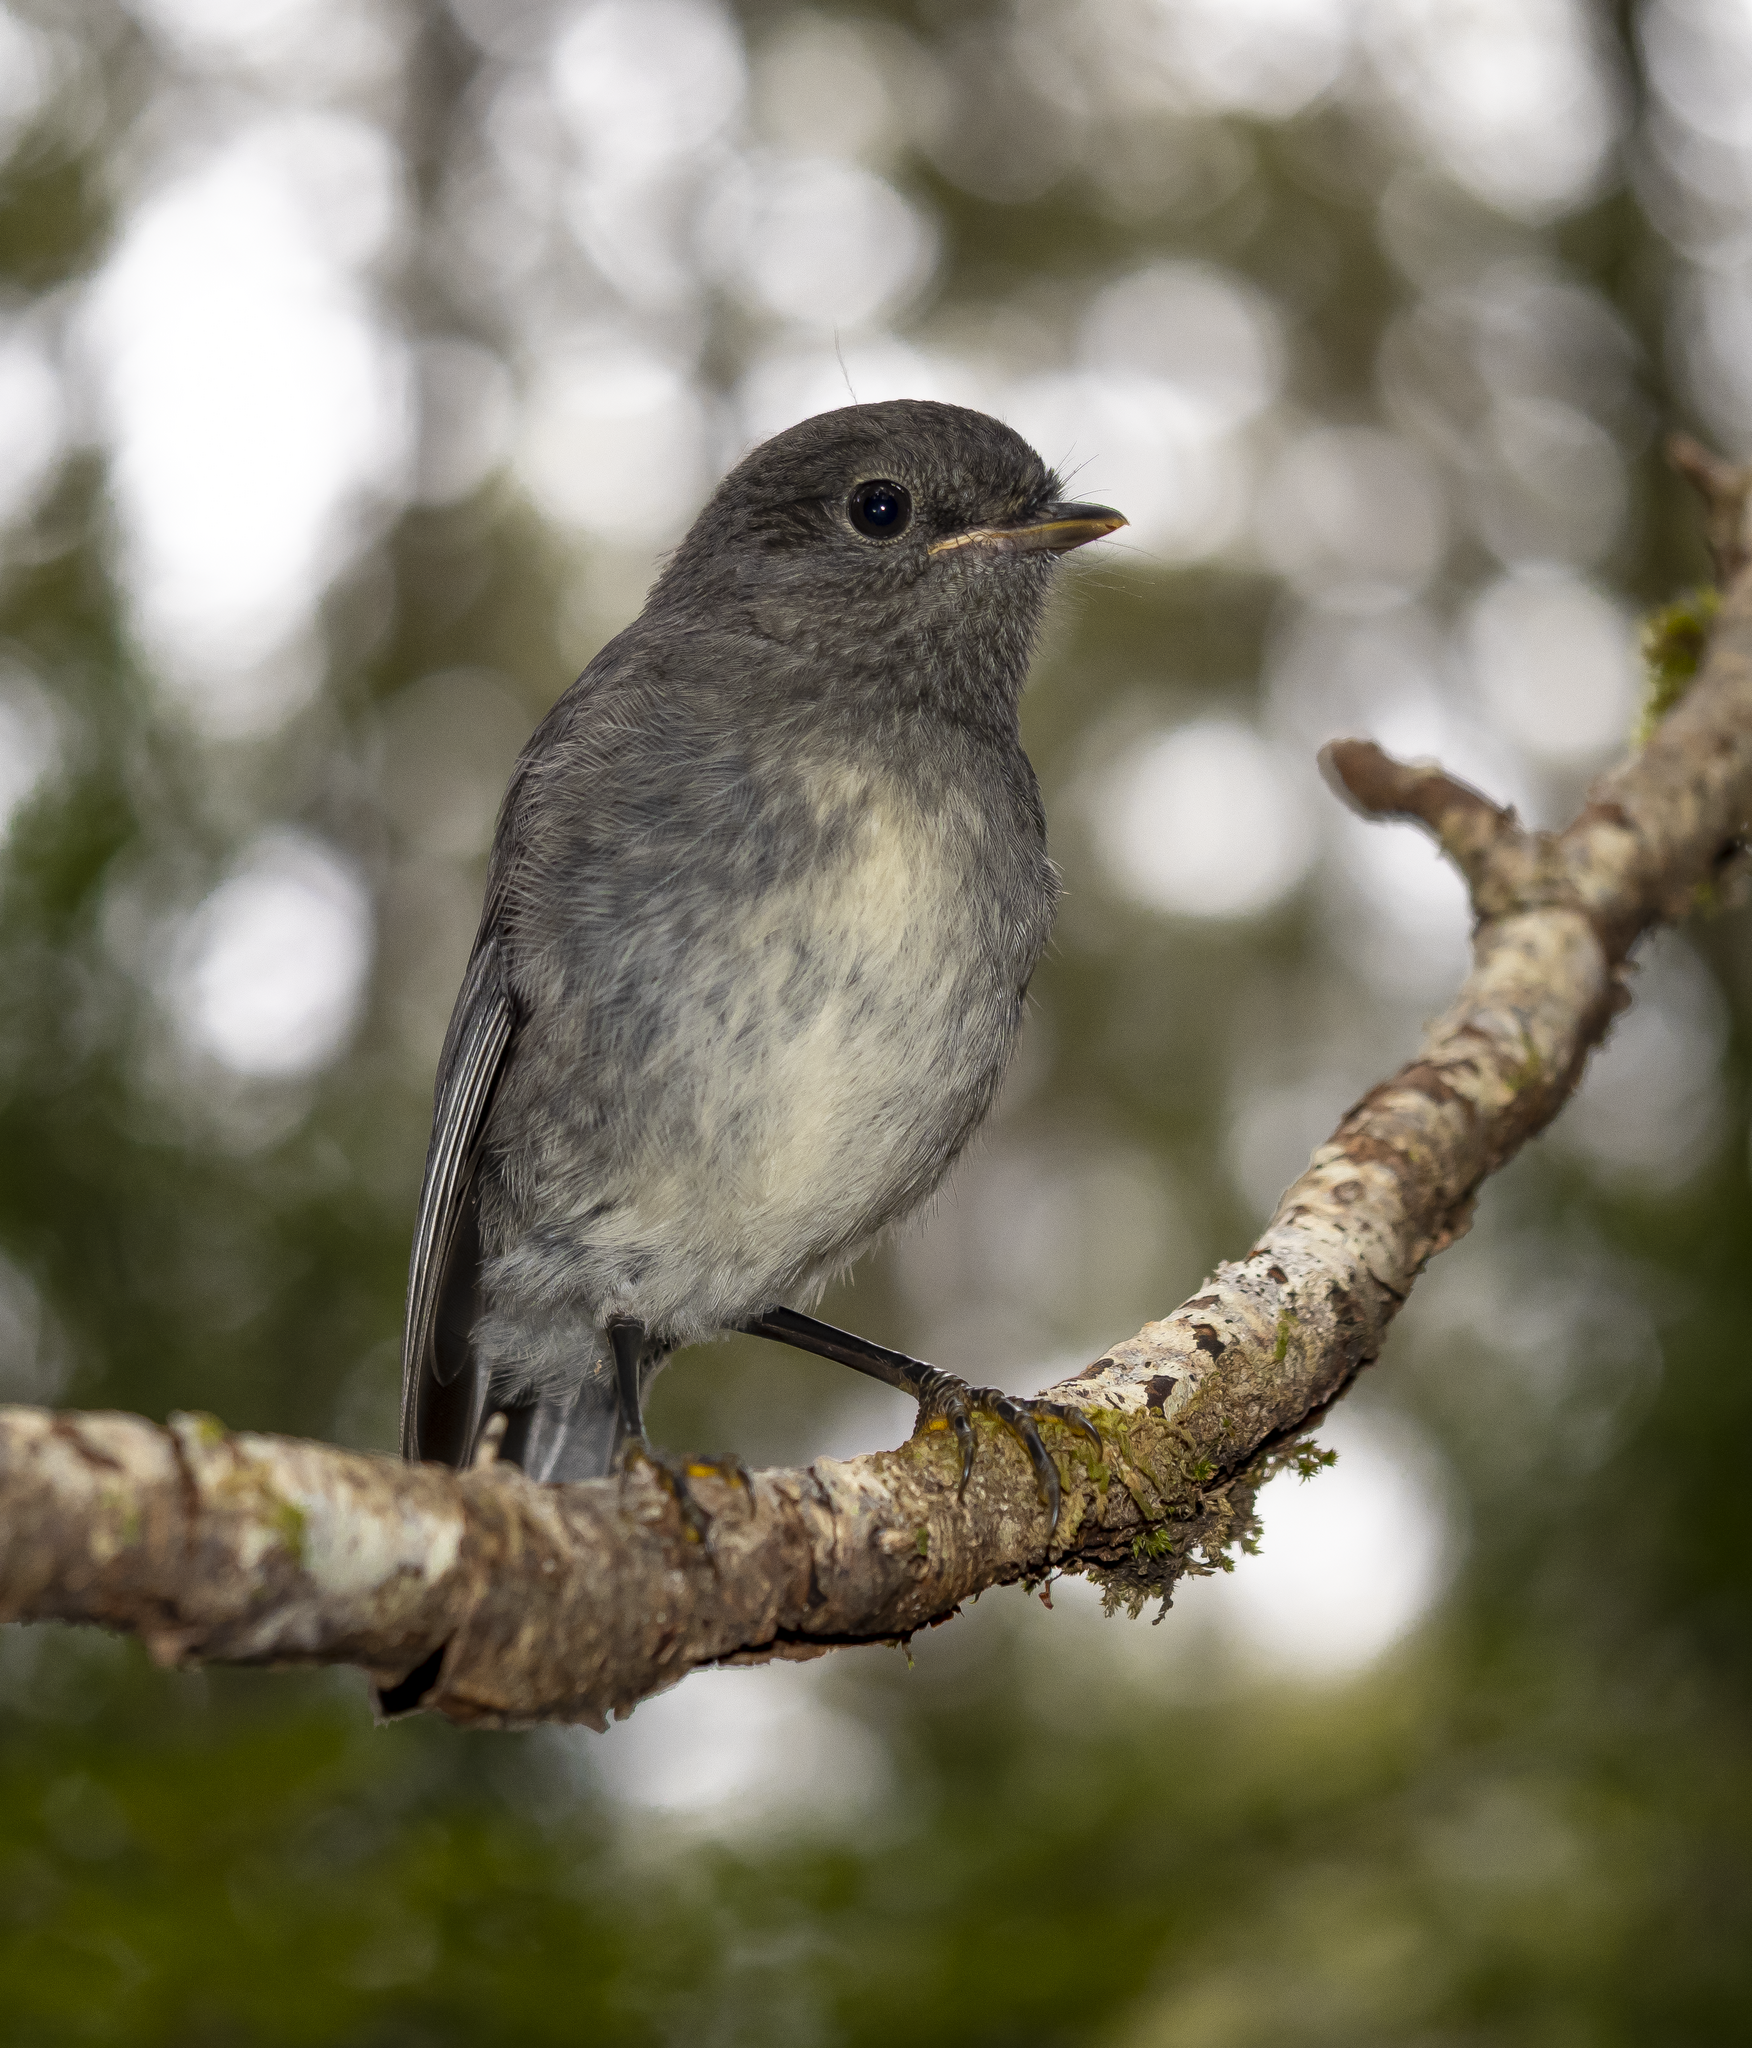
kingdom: Animalia
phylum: Chordata
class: Aves
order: Passeriformes
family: Petroicidae
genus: Petroica
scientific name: Petroica australis
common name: New zealand robin
